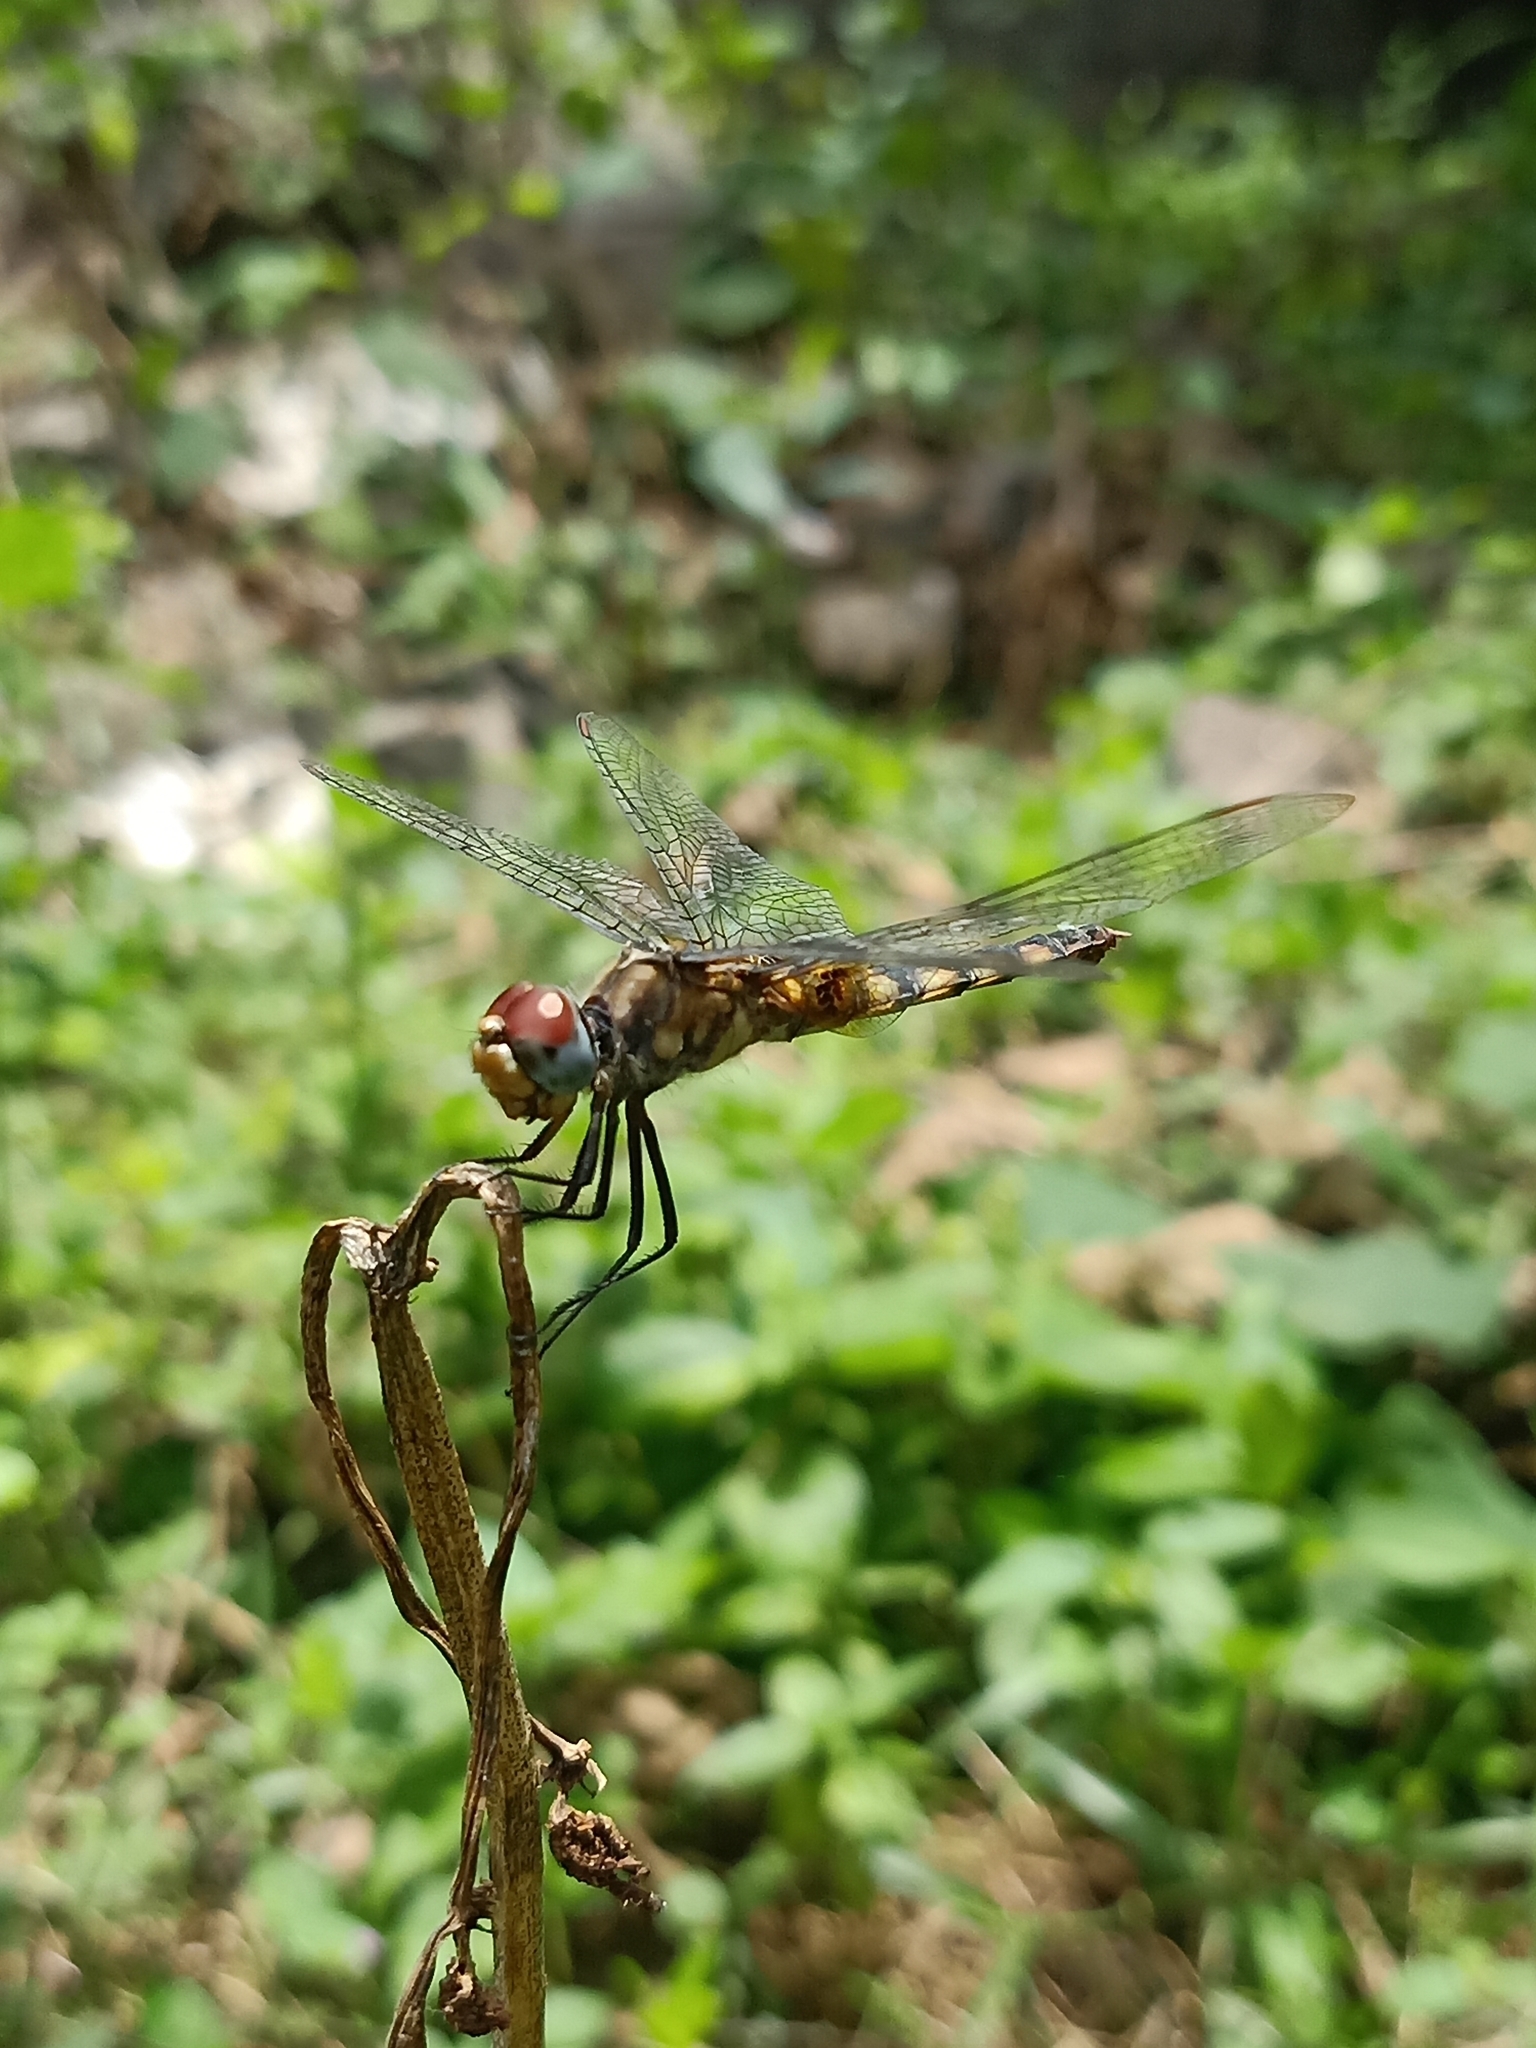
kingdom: Animalia
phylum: Arthropoda
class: Insecta
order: Odonata
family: Libellulidae
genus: Urothemis
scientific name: Urothemis signata
